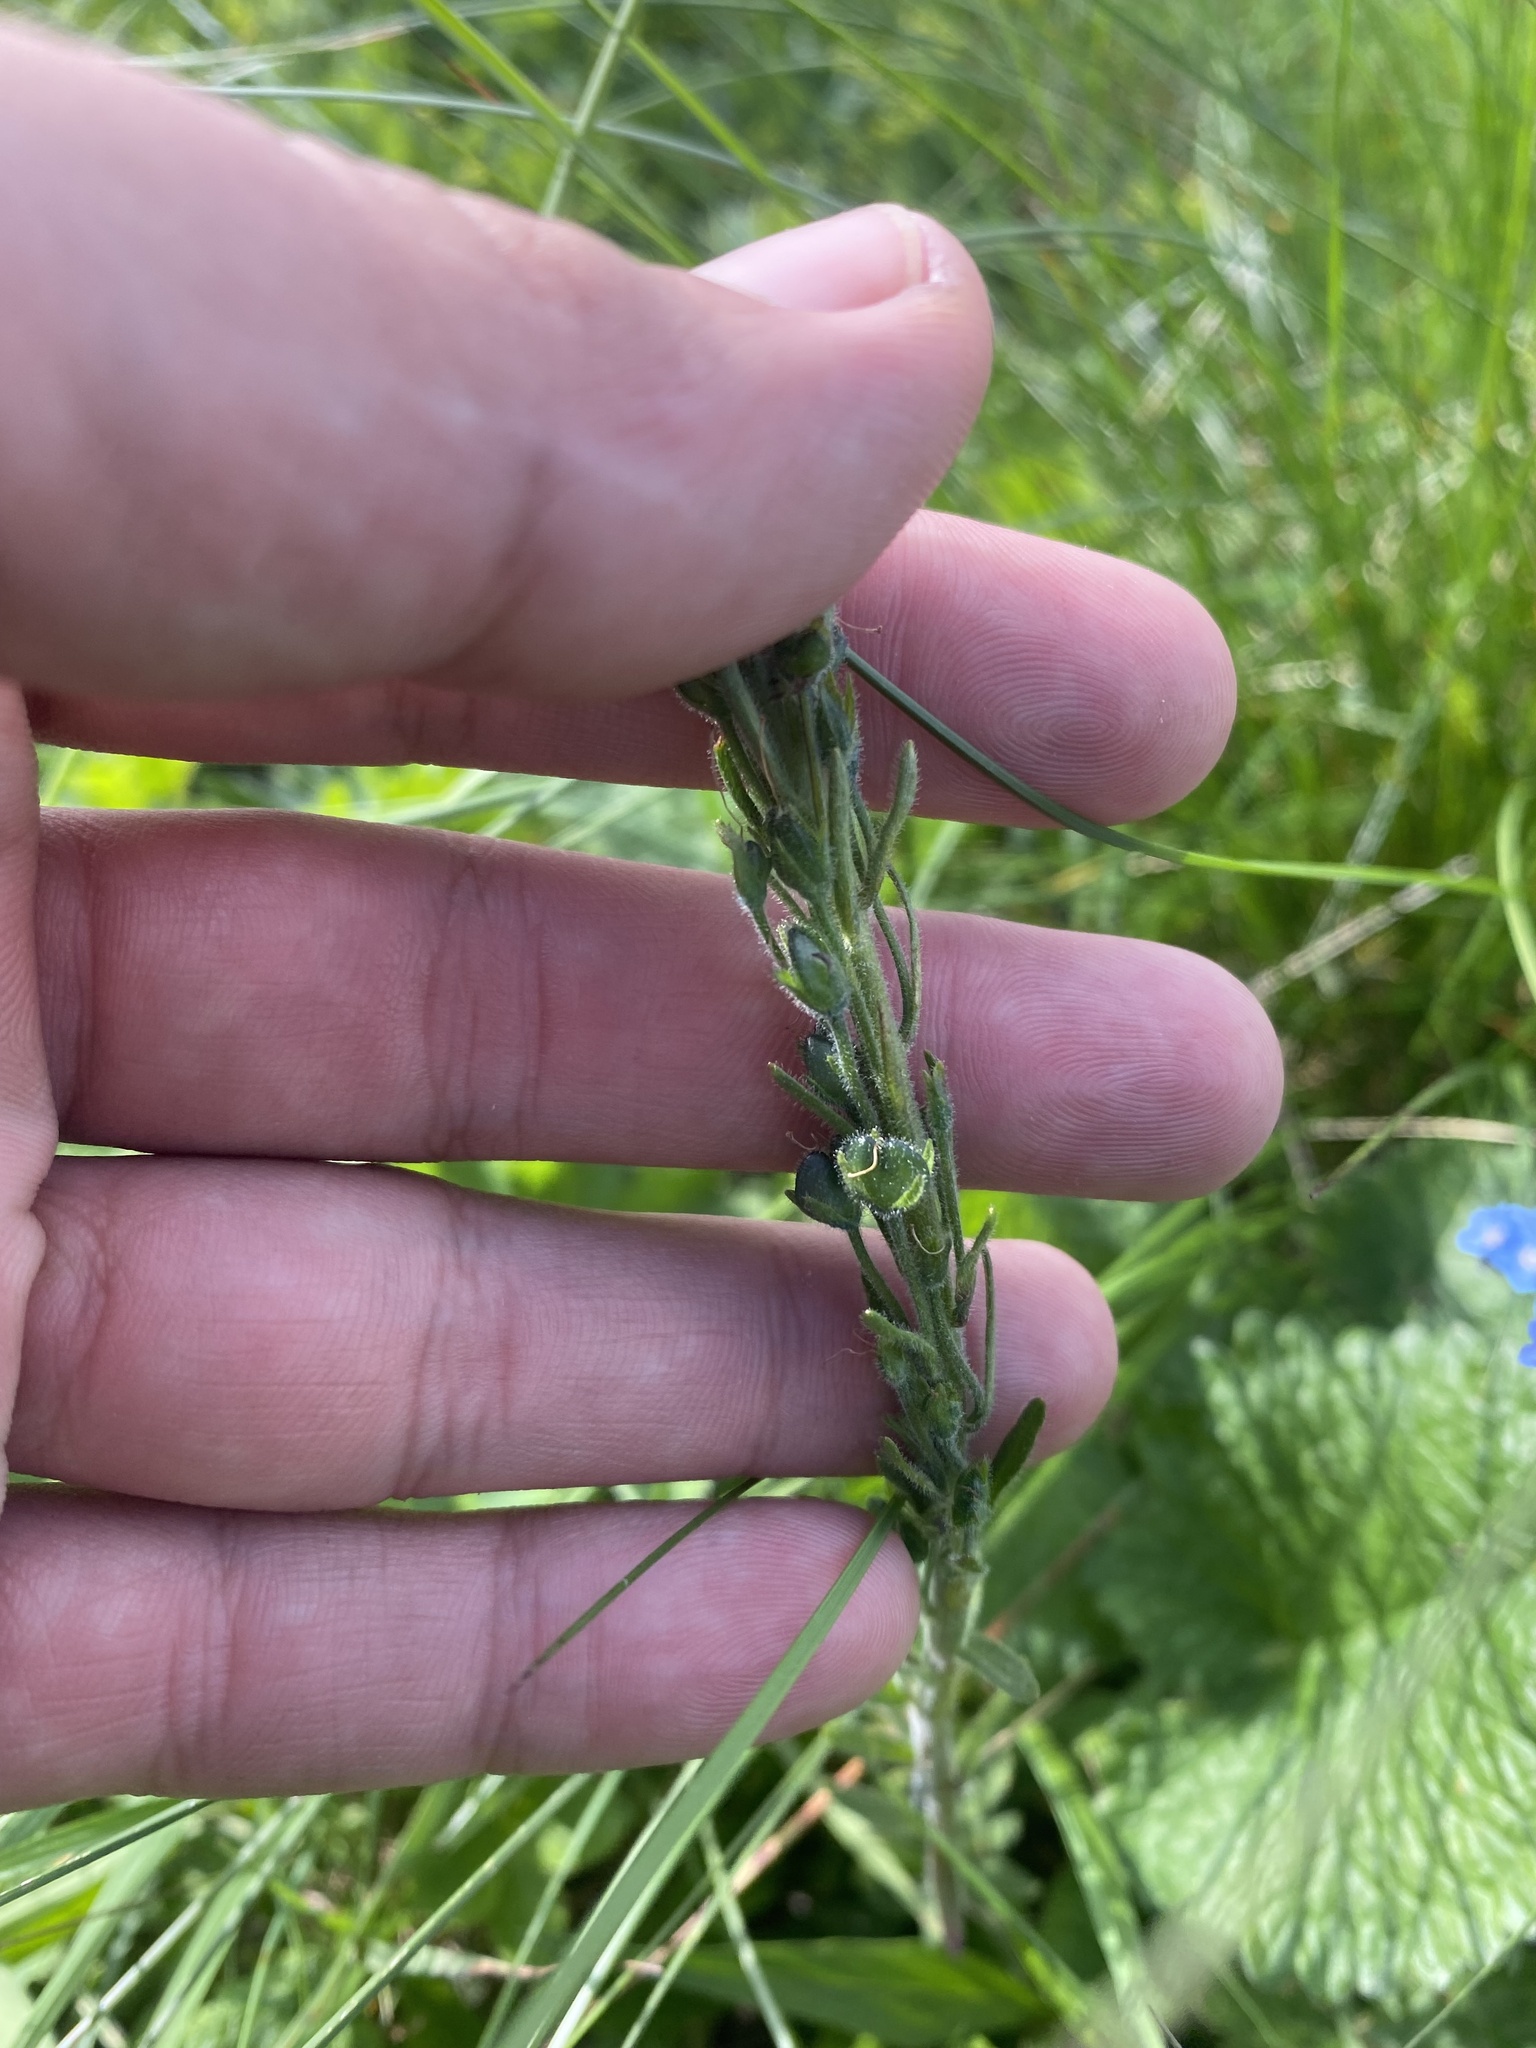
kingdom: Plantae
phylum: Tracheophyta
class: Magnoliopsida
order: Lamiales
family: Plantaginaceae
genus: Veronica
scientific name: Veronica gentianoides
